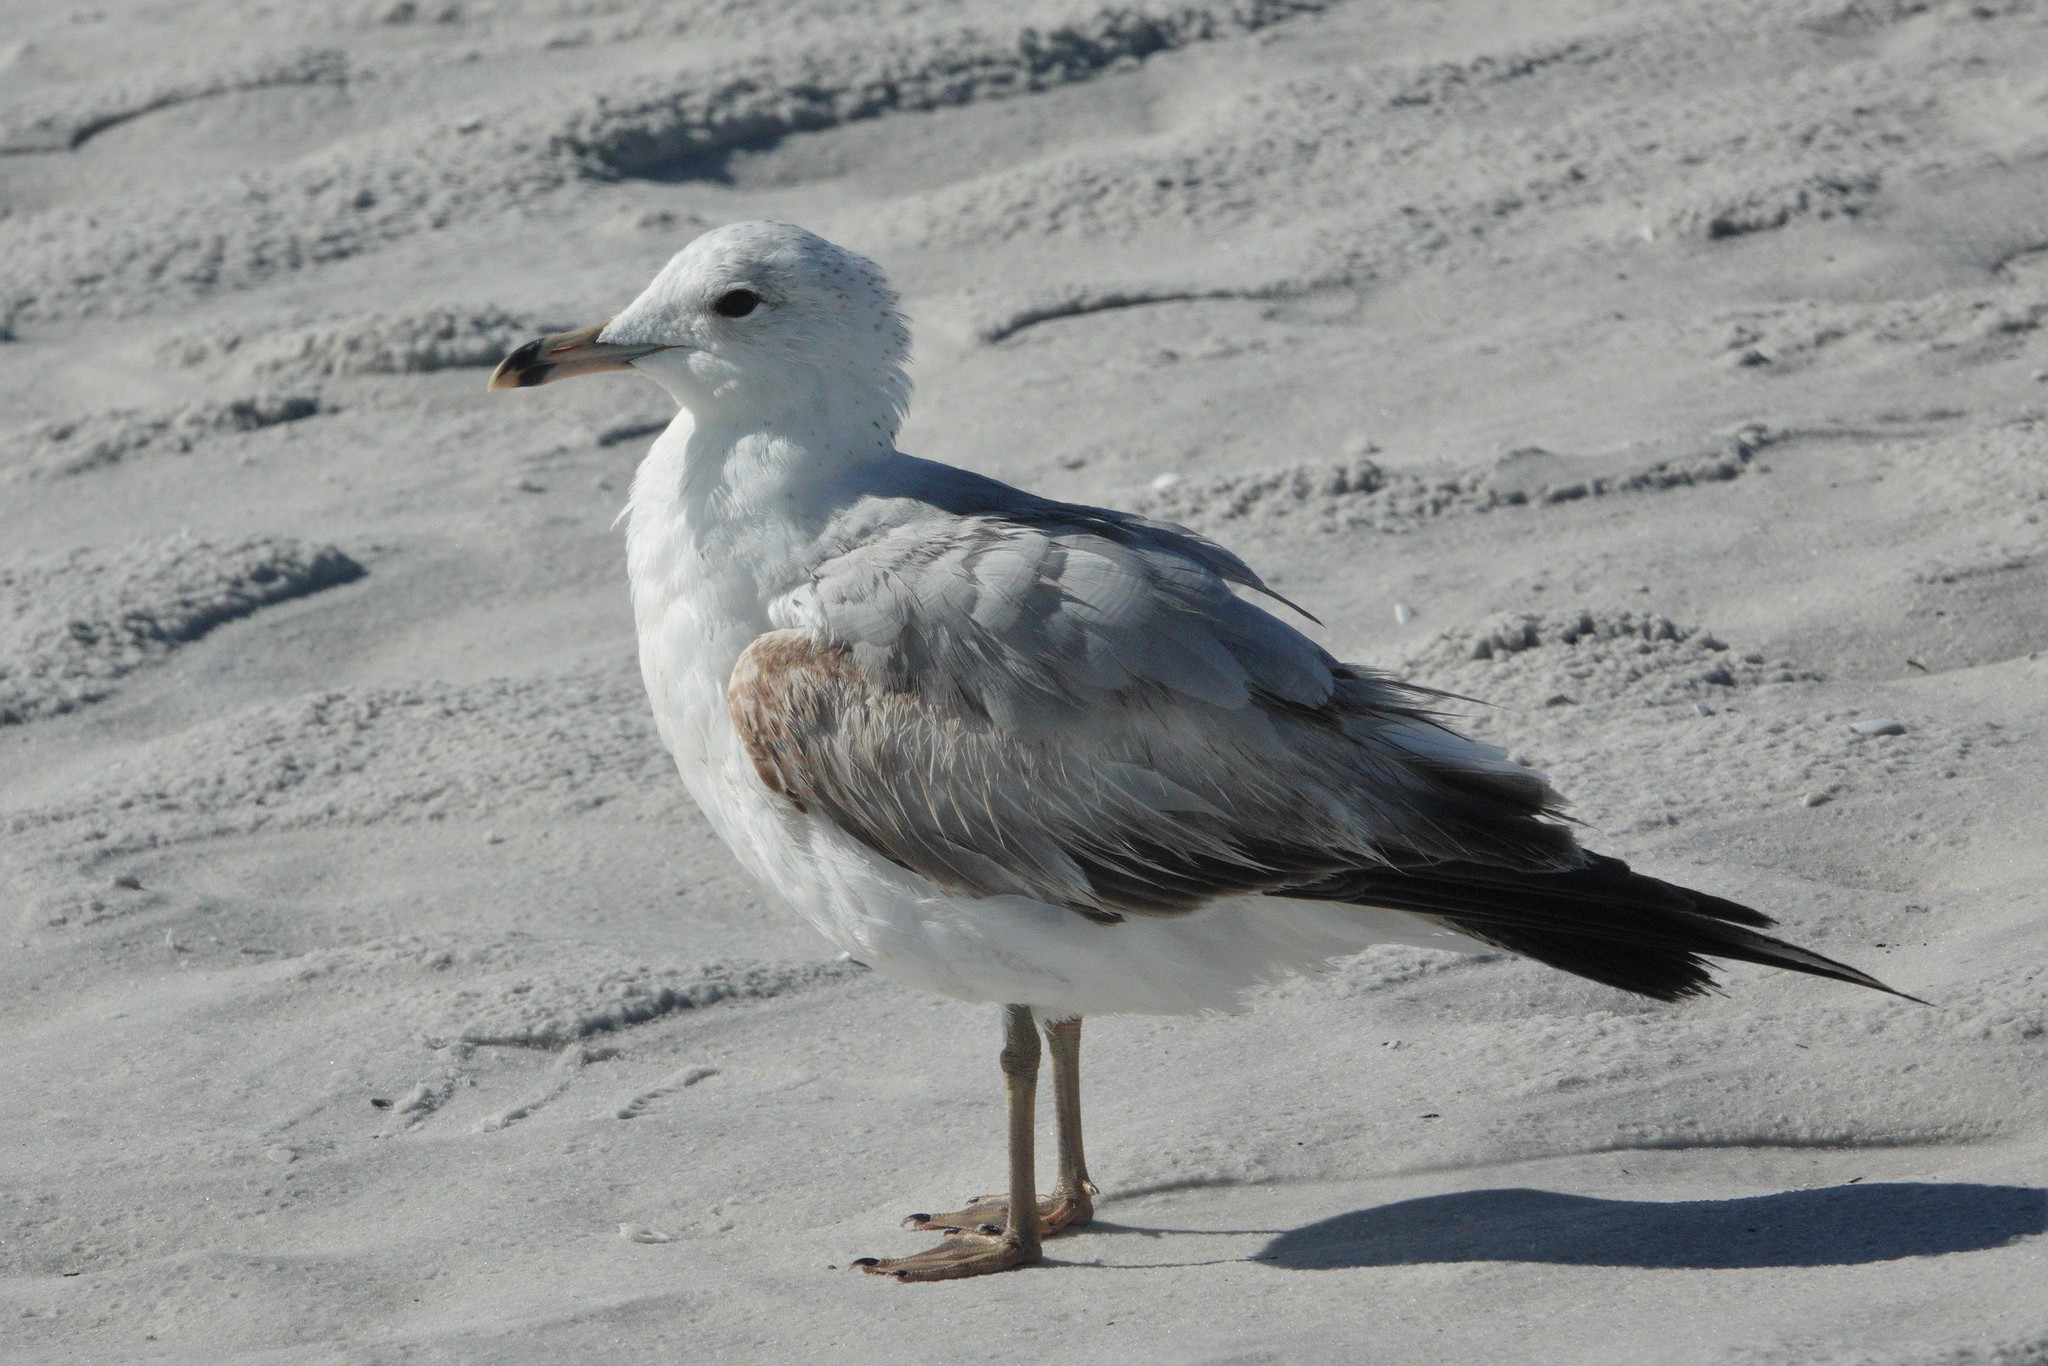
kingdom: Animalia
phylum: Chordata
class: Aves
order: Charadriiformes
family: Laridae
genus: Larus
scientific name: Larus delawarensis
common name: Ring-billed gull
